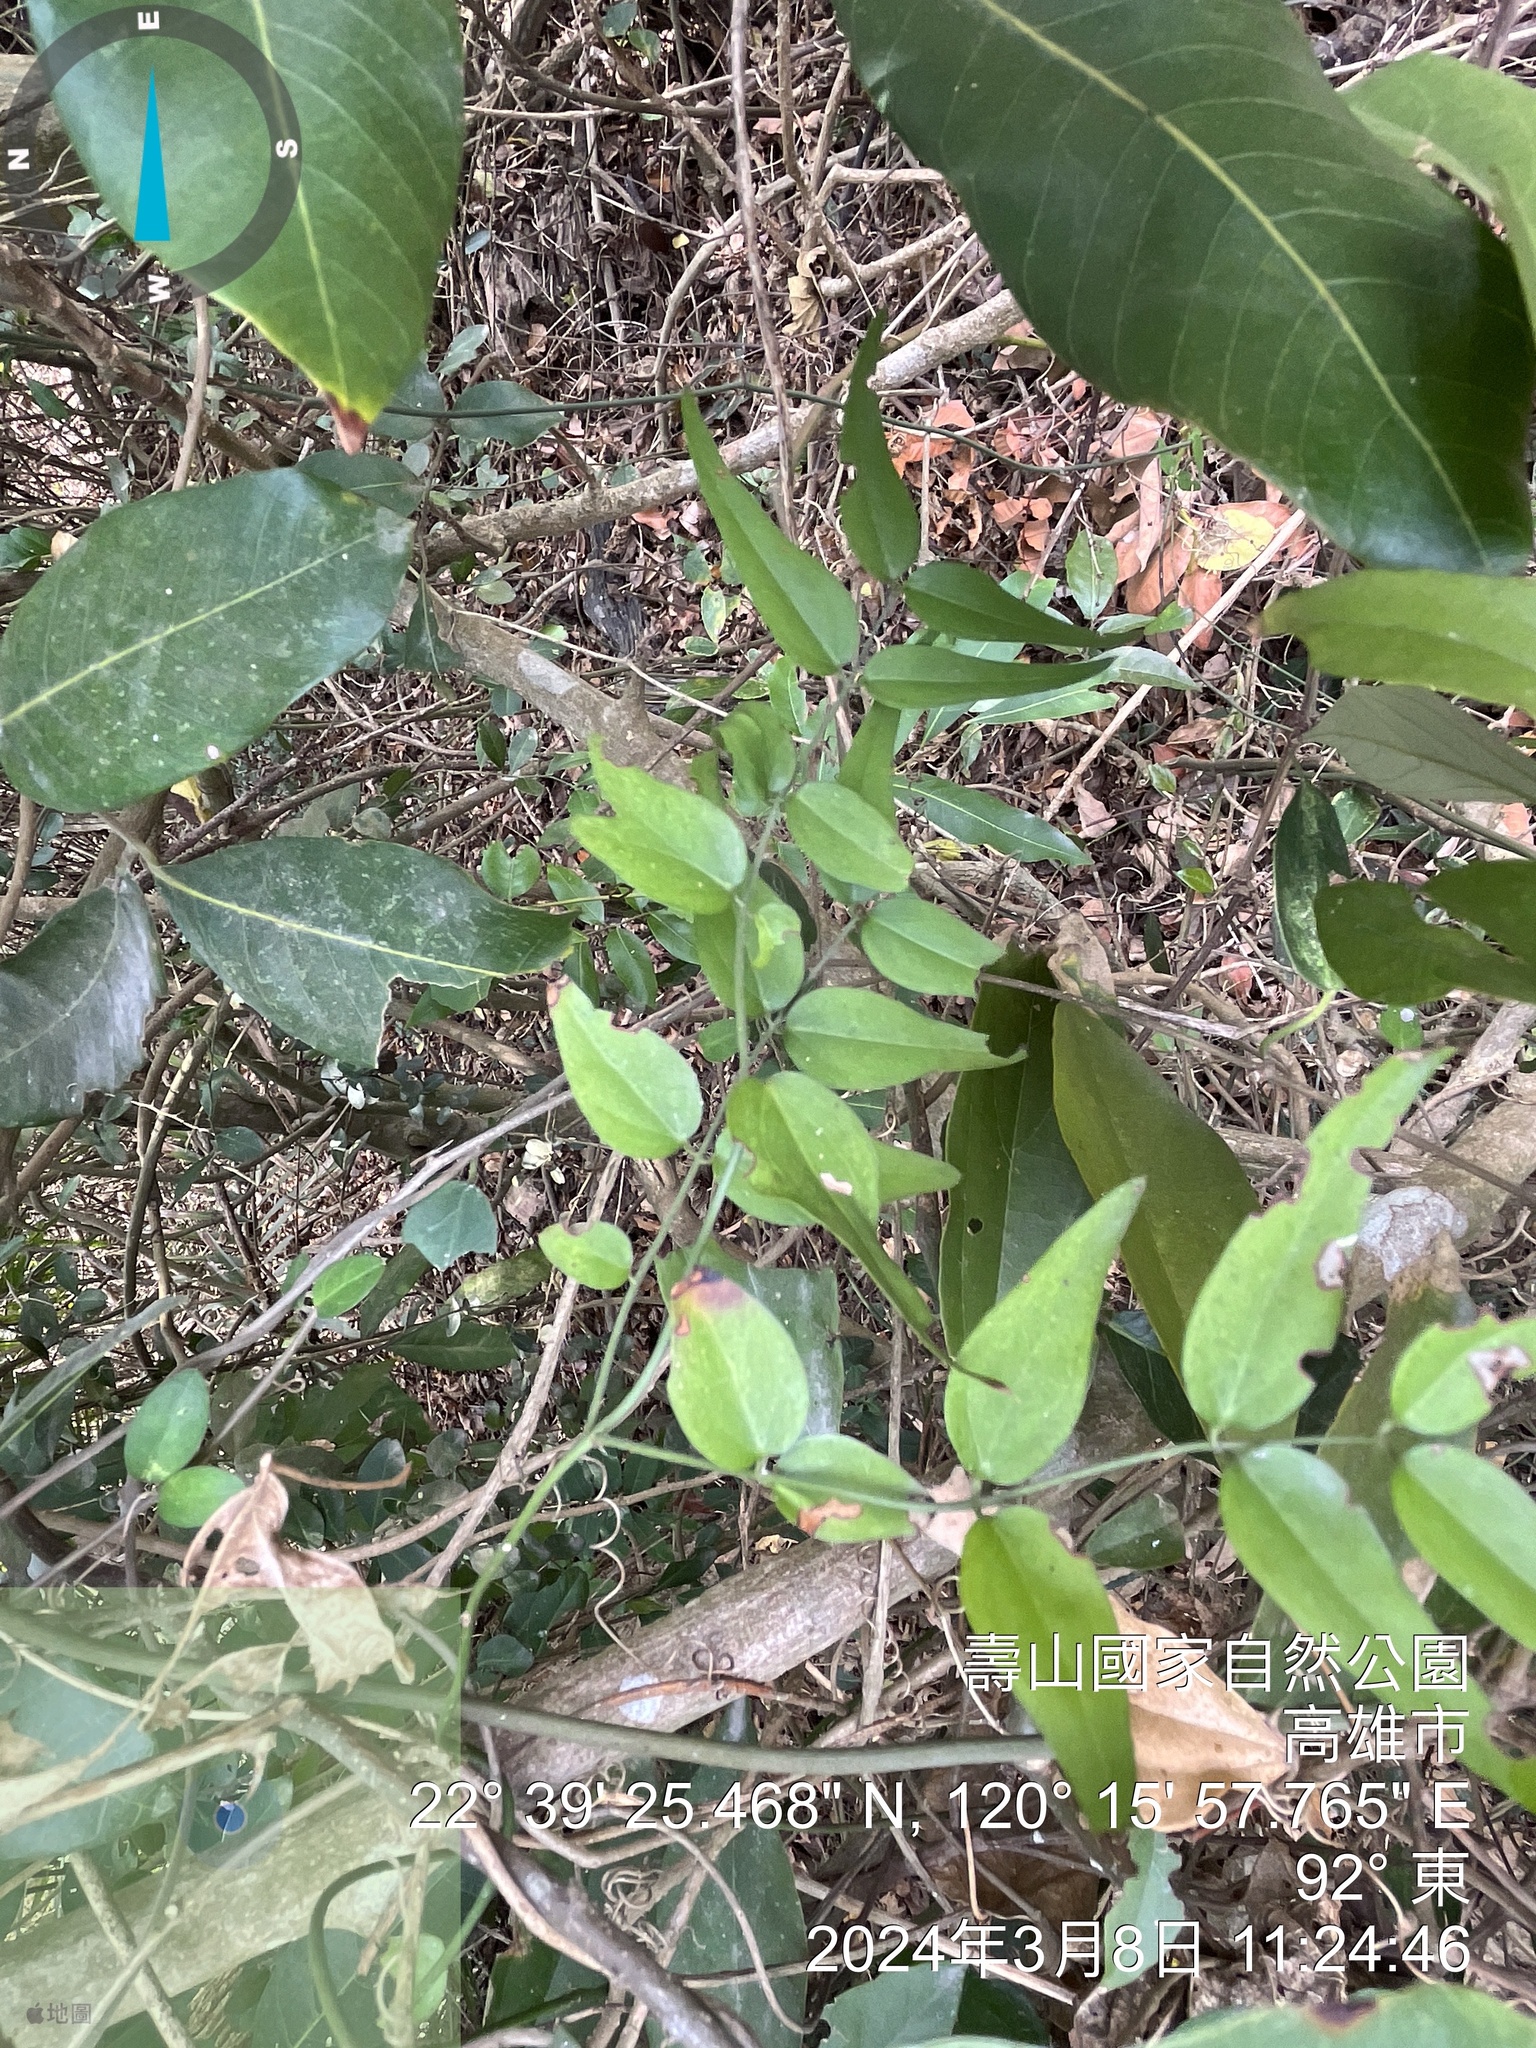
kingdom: Plantae
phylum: Tracheophyta
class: Magnoliopsida
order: Lamiales
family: Oleaceae
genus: Jasminum
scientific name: Jasminum nervosum
